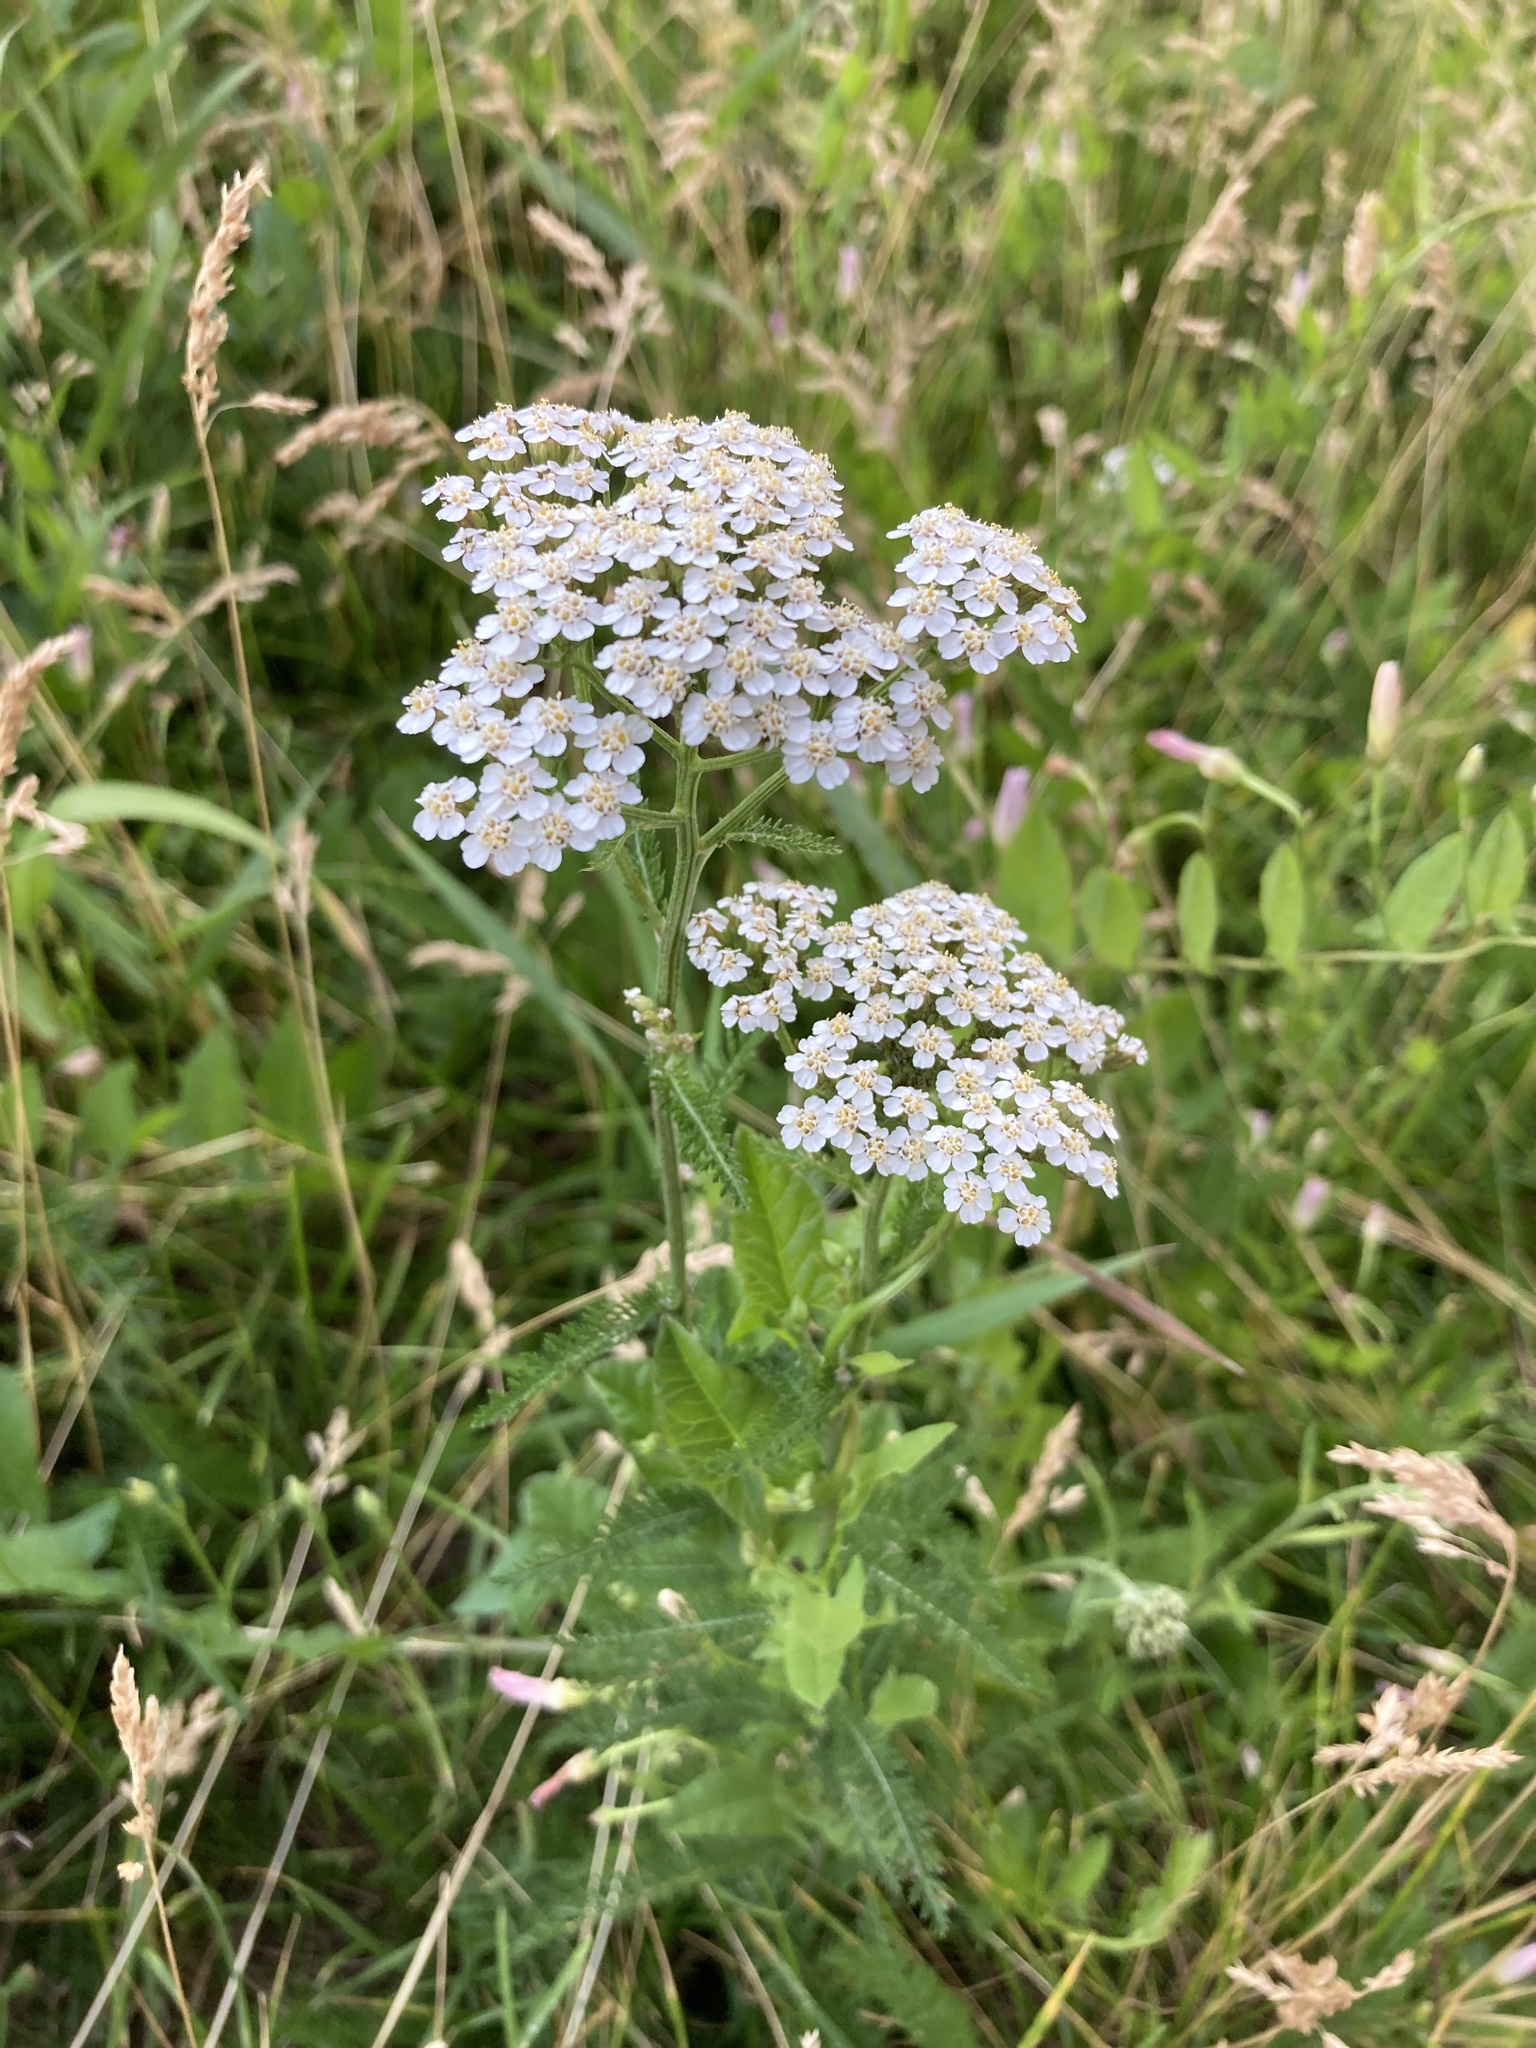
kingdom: Plantae
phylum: Tracheophyta
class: Magnoliopsida
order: Asterales
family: Asteraceae
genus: Achillea
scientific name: Achillea millefolium
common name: Yarrow
